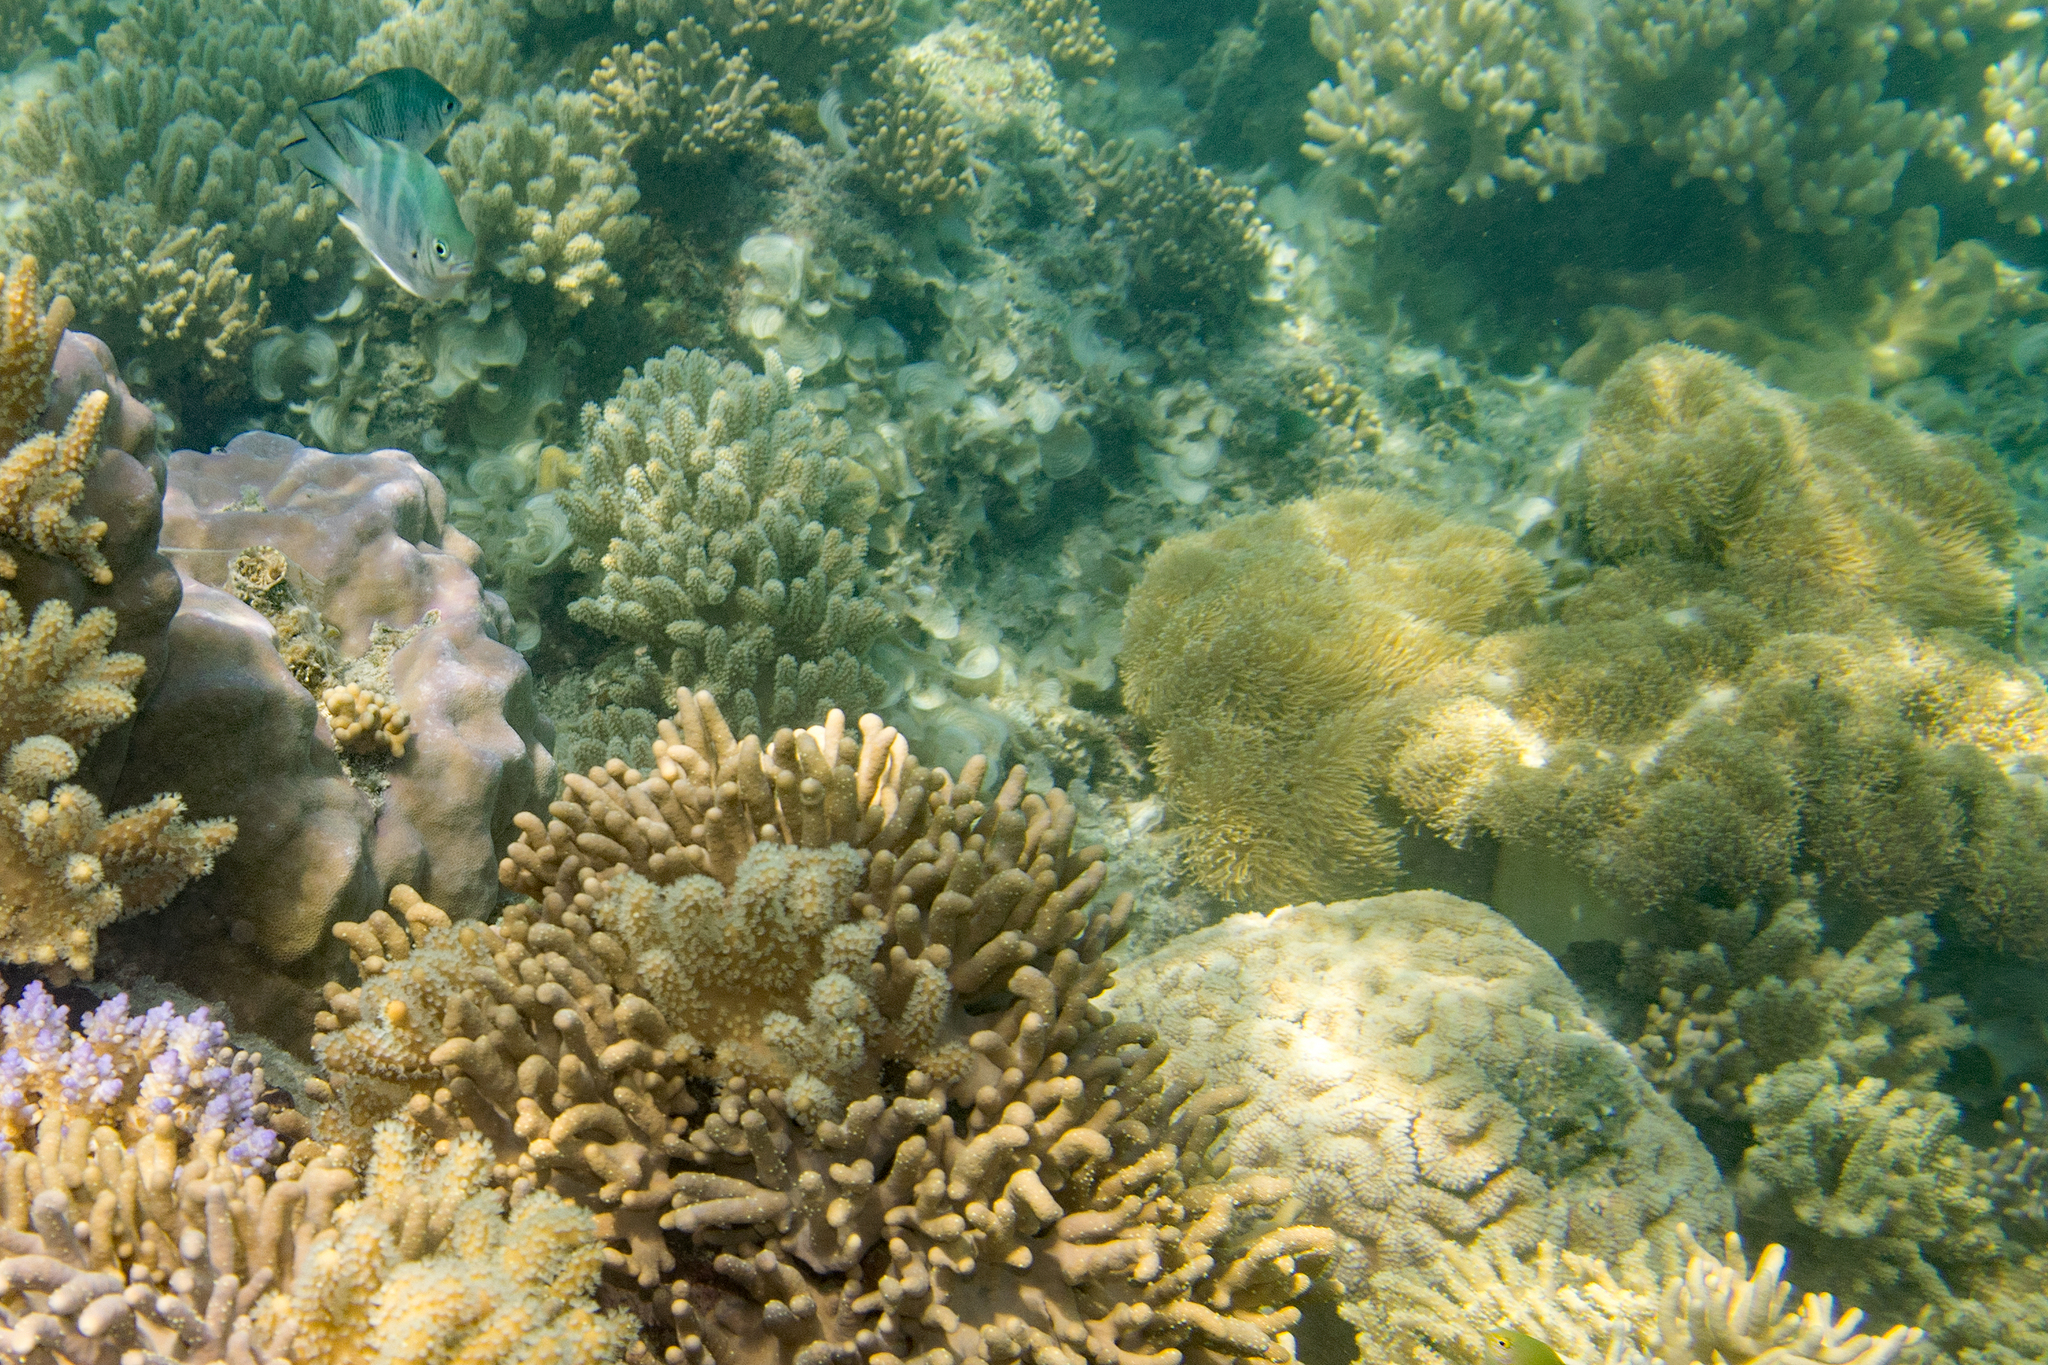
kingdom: Animalia
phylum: Chordata
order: Perciformes
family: Pomacentridae
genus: Amblyglyphidodon
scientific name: Amblyglyphidodon curacao
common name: Staghorn damsel
